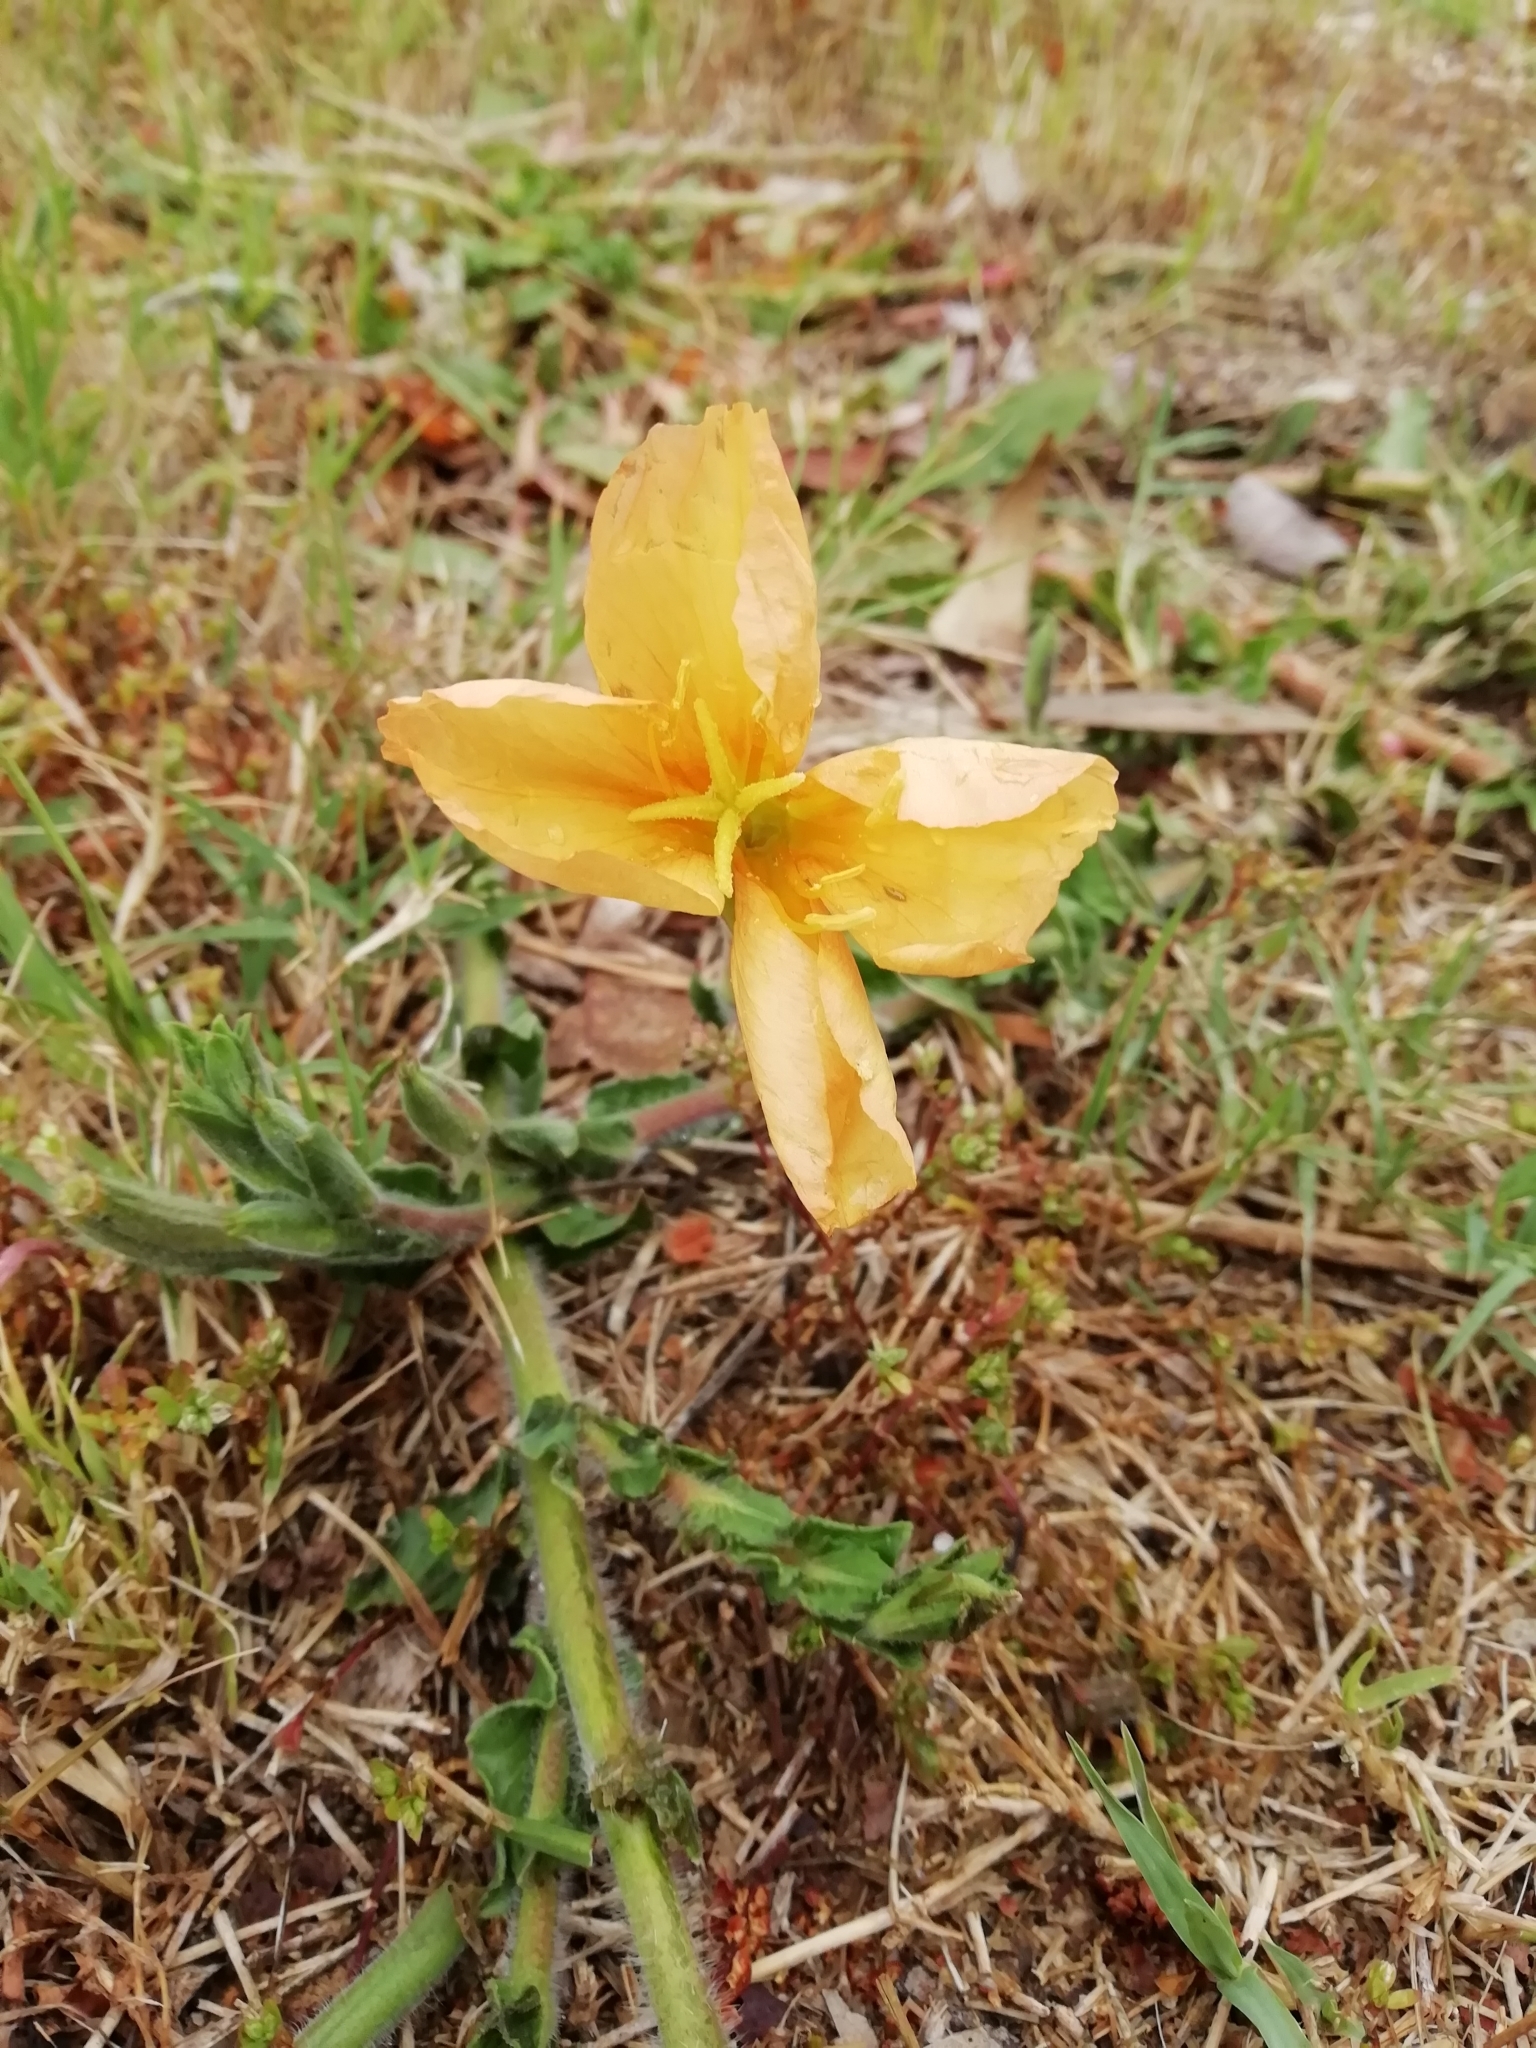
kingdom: Plantae
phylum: Tracheophyta
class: Magnoliopsida
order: Myrtales
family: Onagraceae
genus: Oenothera
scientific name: Oenothera mollissima
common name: Argentine evening primrose
